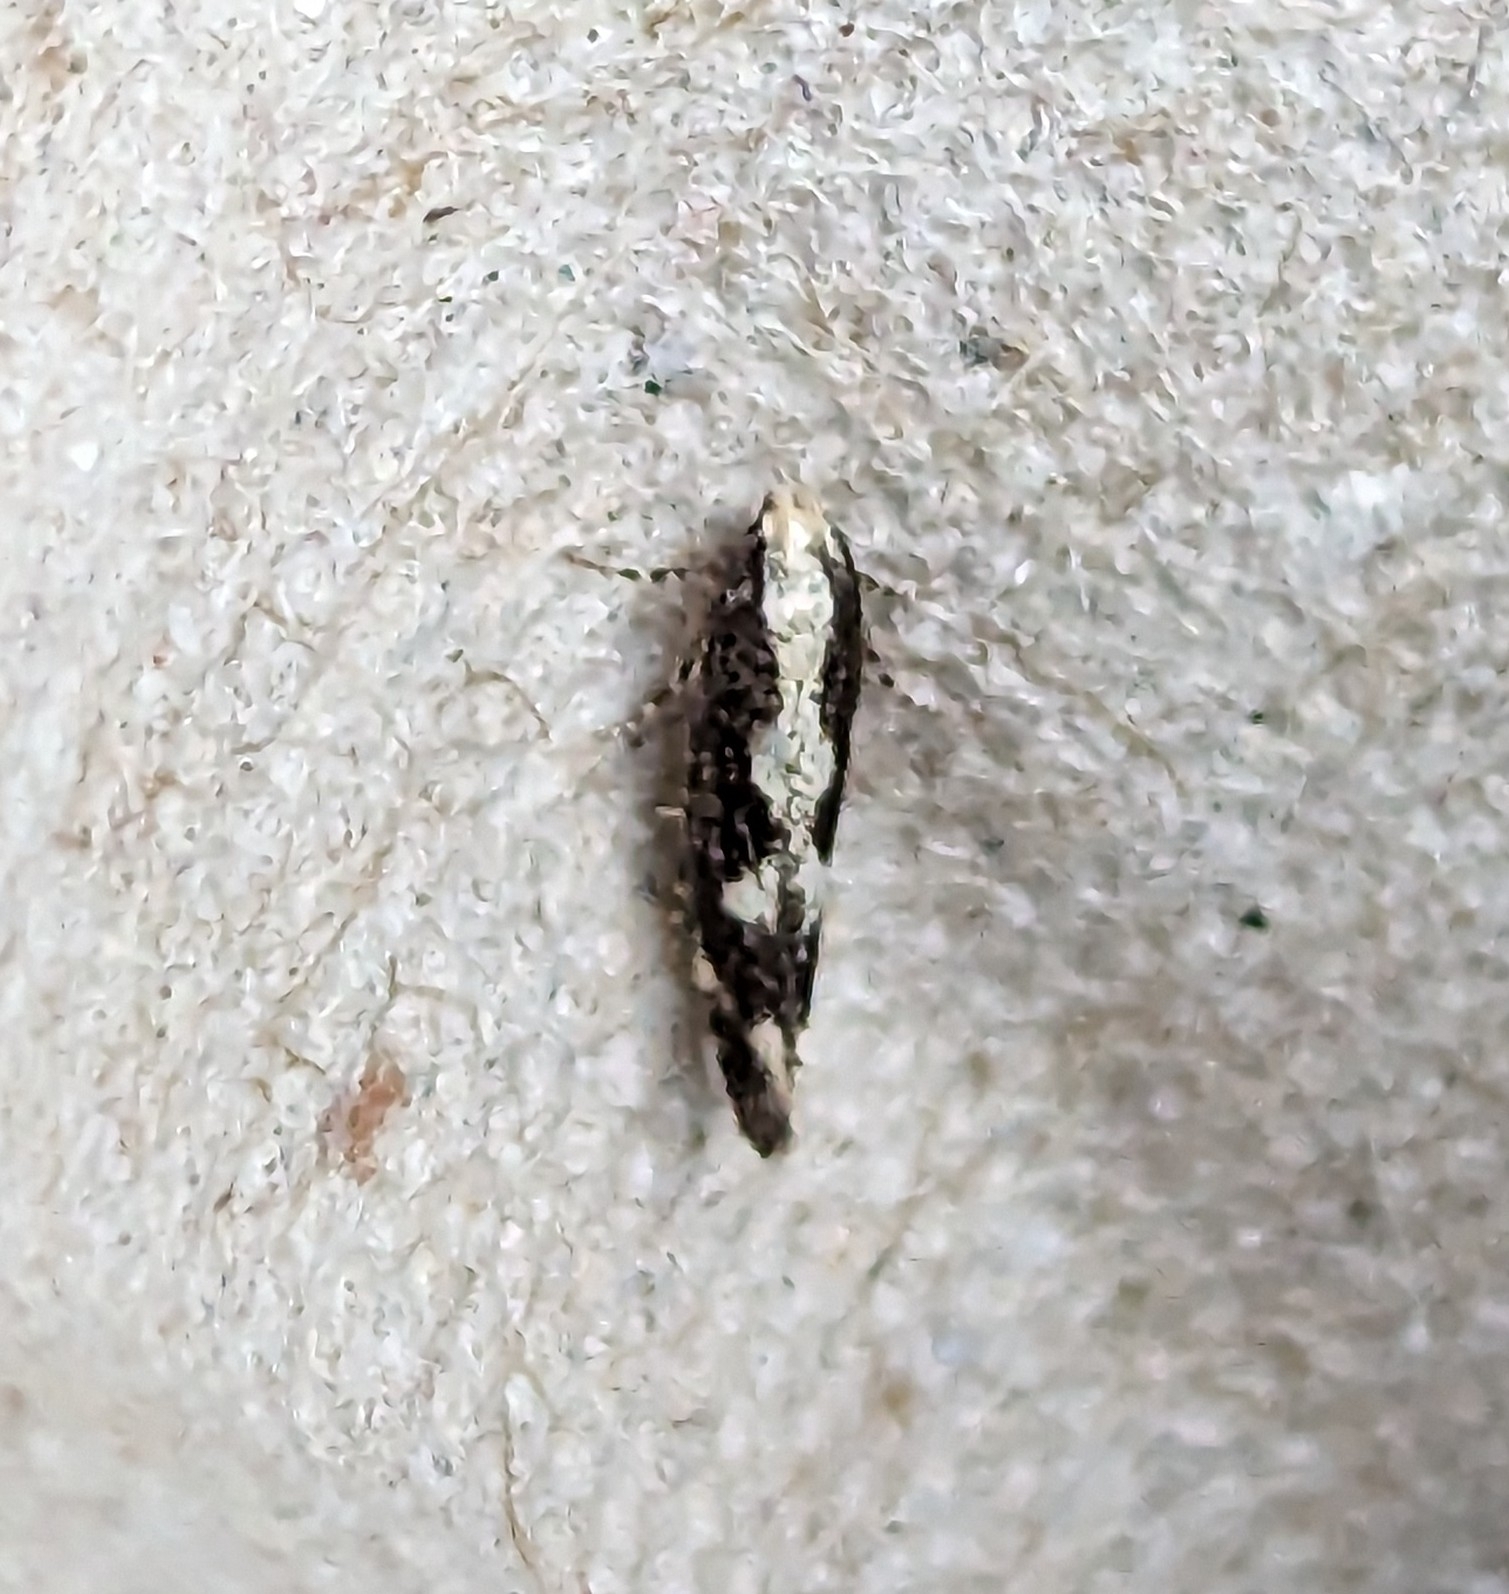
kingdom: Animalia
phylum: Arthropoda
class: Insecta
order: Lepidoptera
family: Gelechiidae
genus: Agnippe
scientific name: Agnippe prunifoliella
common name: Skunk twirler
